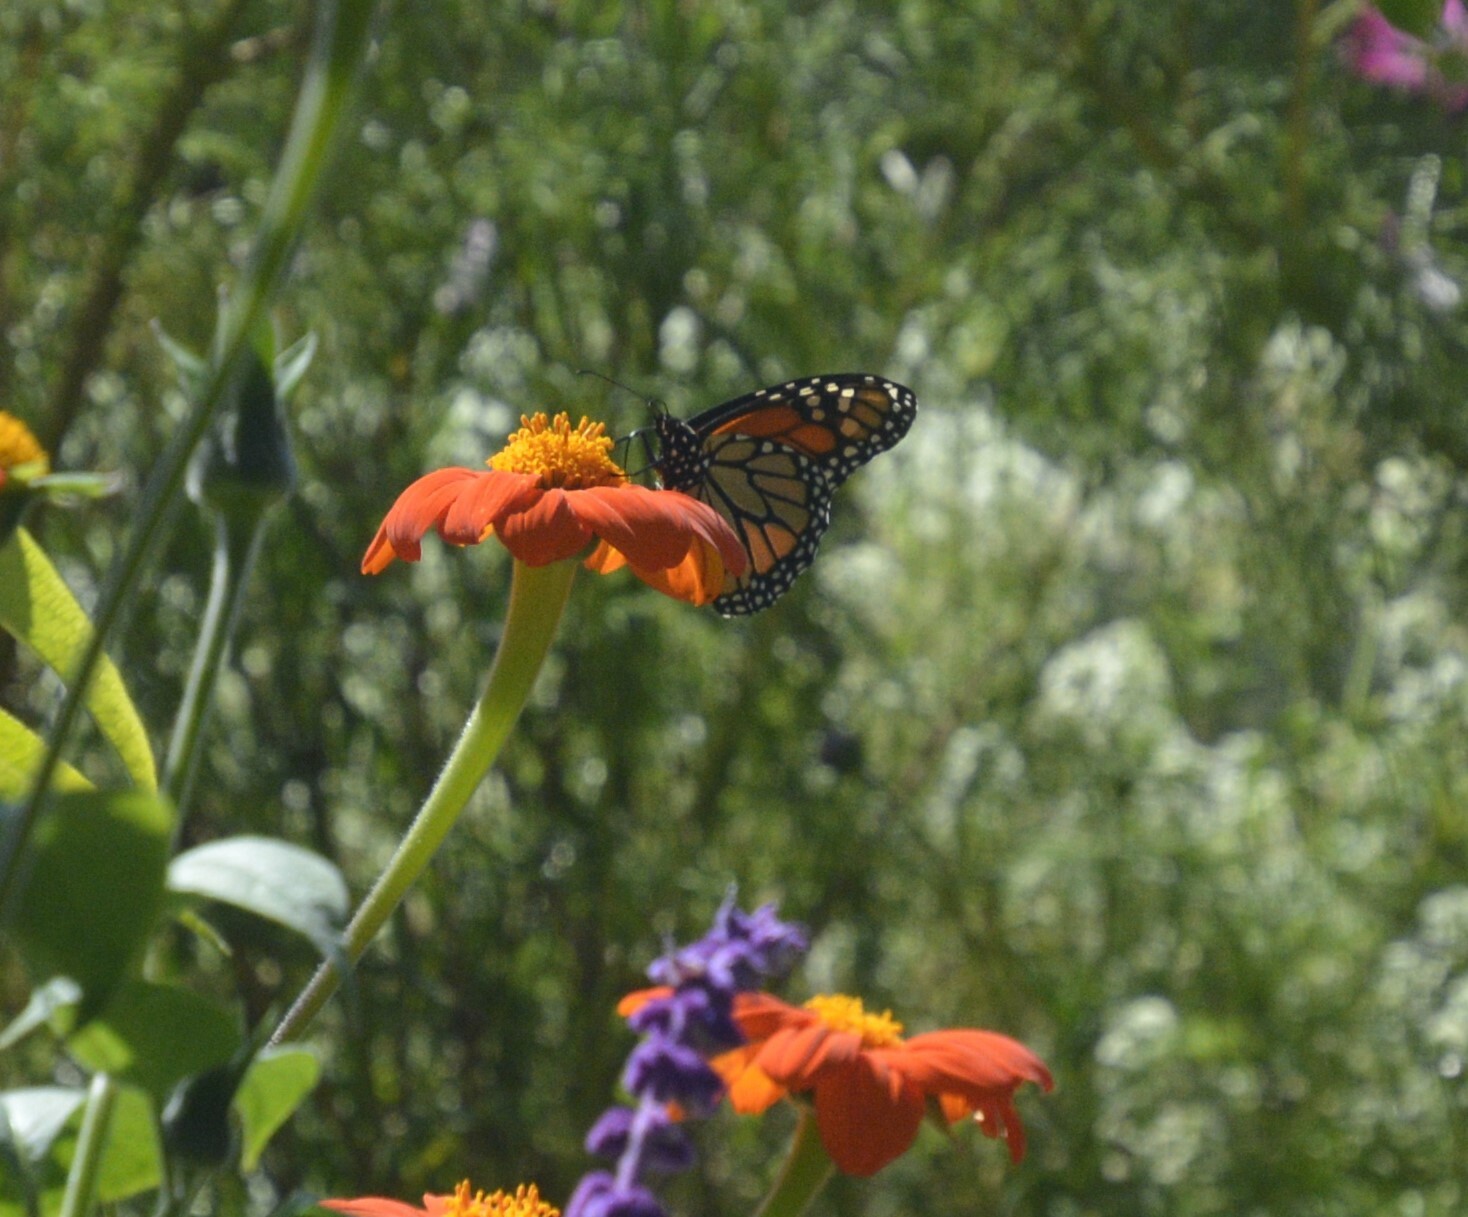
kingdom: Animalia
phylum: Arthropoda
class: Insecta
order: Lepidoptera
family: Nymphalidae
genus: Danaus
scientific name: Danaus plexippus
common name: Monarch
